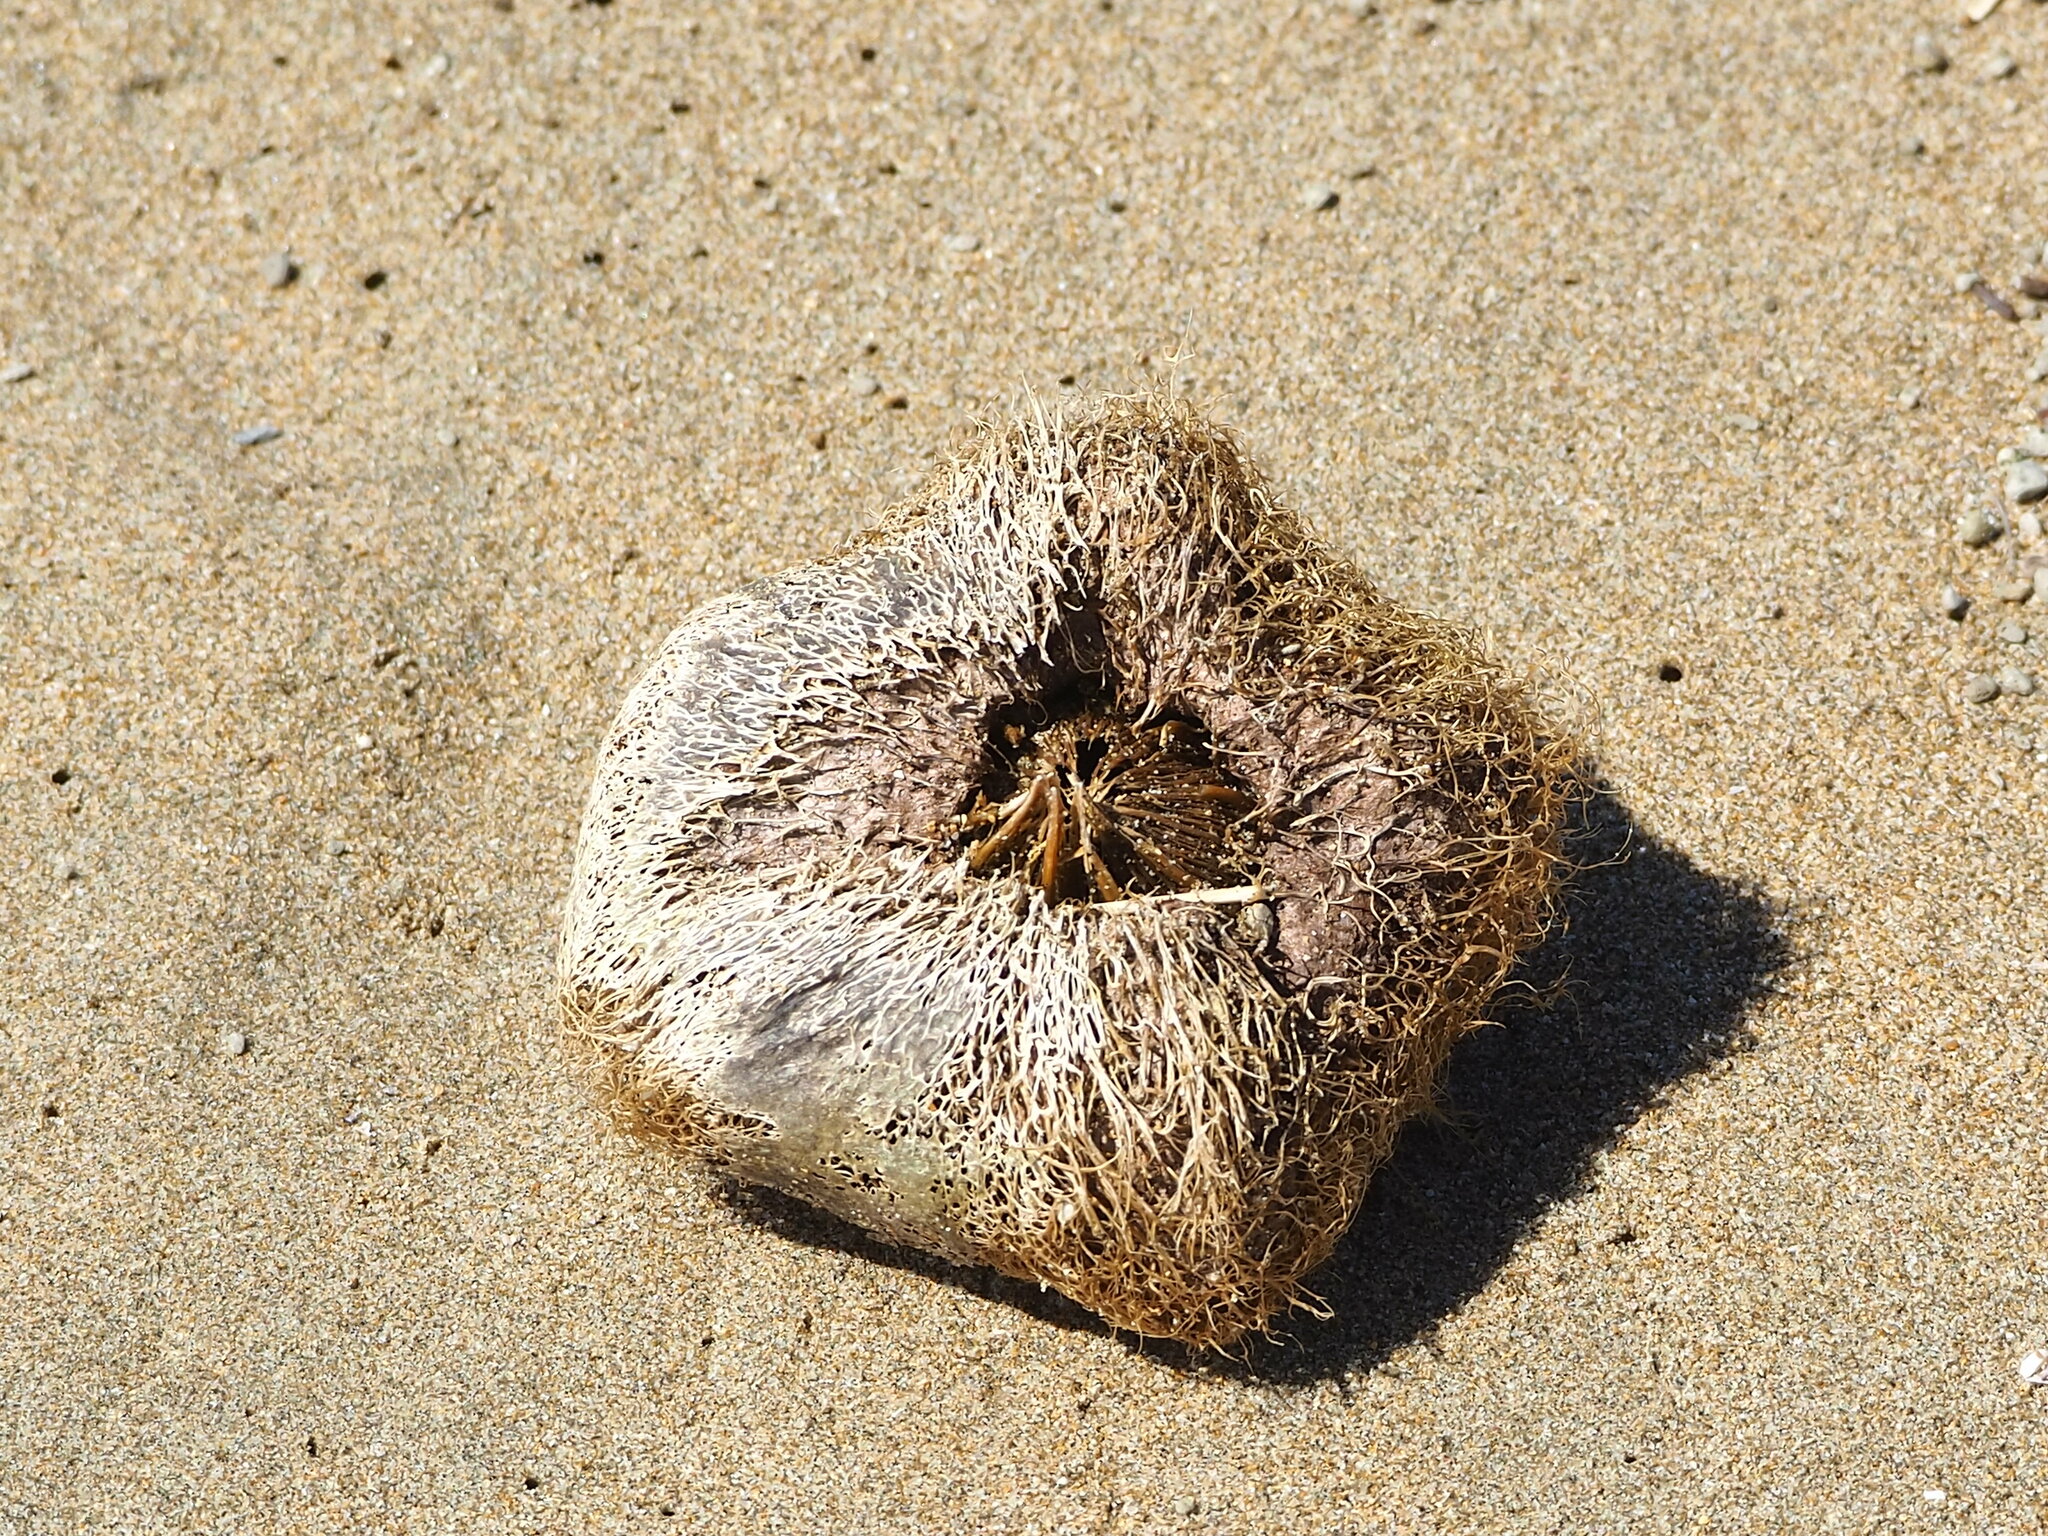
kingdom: Plantae
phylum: Tracheophyta
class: Magnoliopsida
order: Ericales
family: Lecythidaceae
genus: Barringtonia
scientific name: Barringtonia asiatica
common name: Mango-pine
